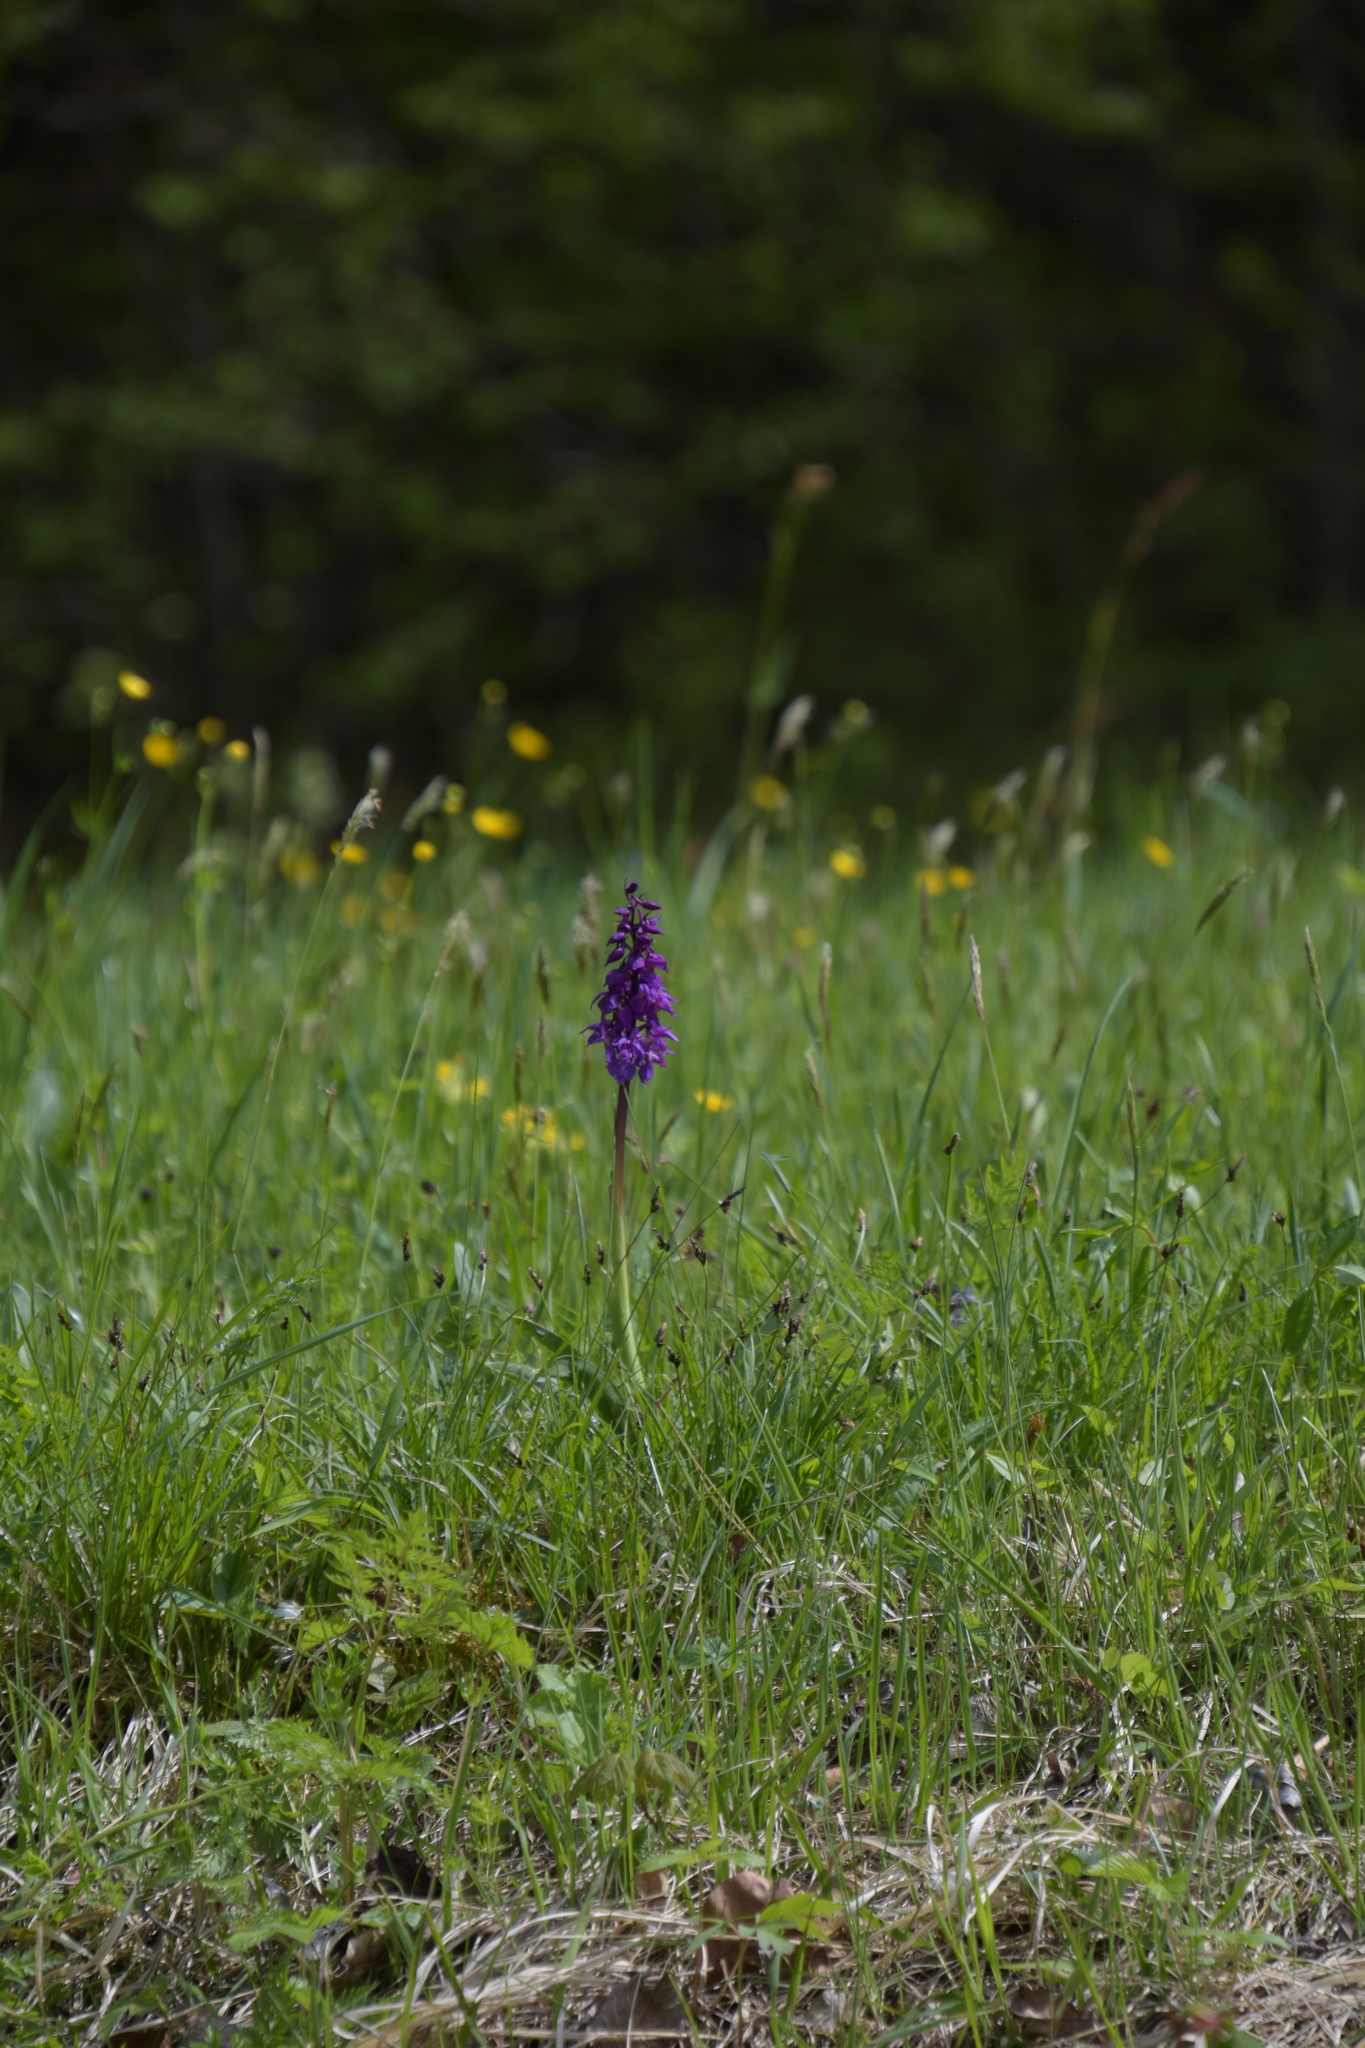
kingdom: Plantae
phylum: Tracheophyta
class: Liliopsida
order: Asparagales
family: Orchidaceae
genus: Orchis
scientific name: Orchis mascula
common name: Early-purple orchid
